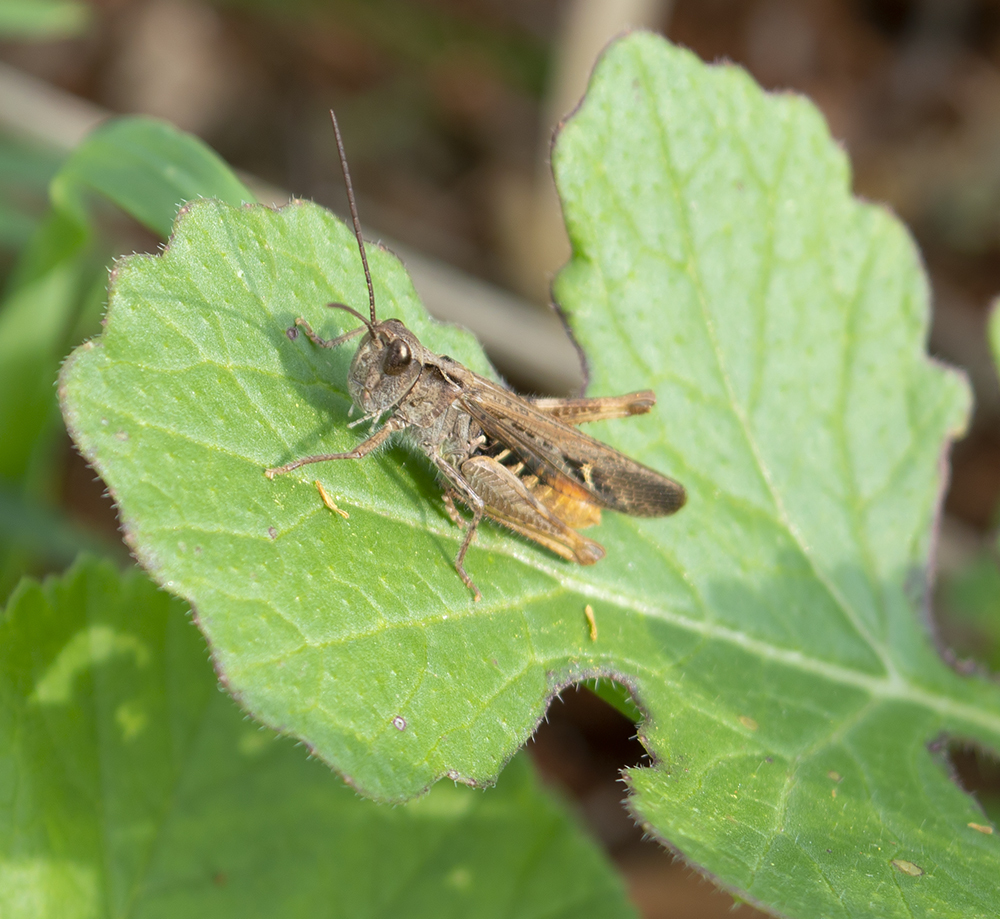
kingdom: Animalia
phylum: Arthropoda
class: Insecta
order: Orthoptera
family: Acrididae
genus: Chorthippus
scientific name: Chorthippus maritimus
